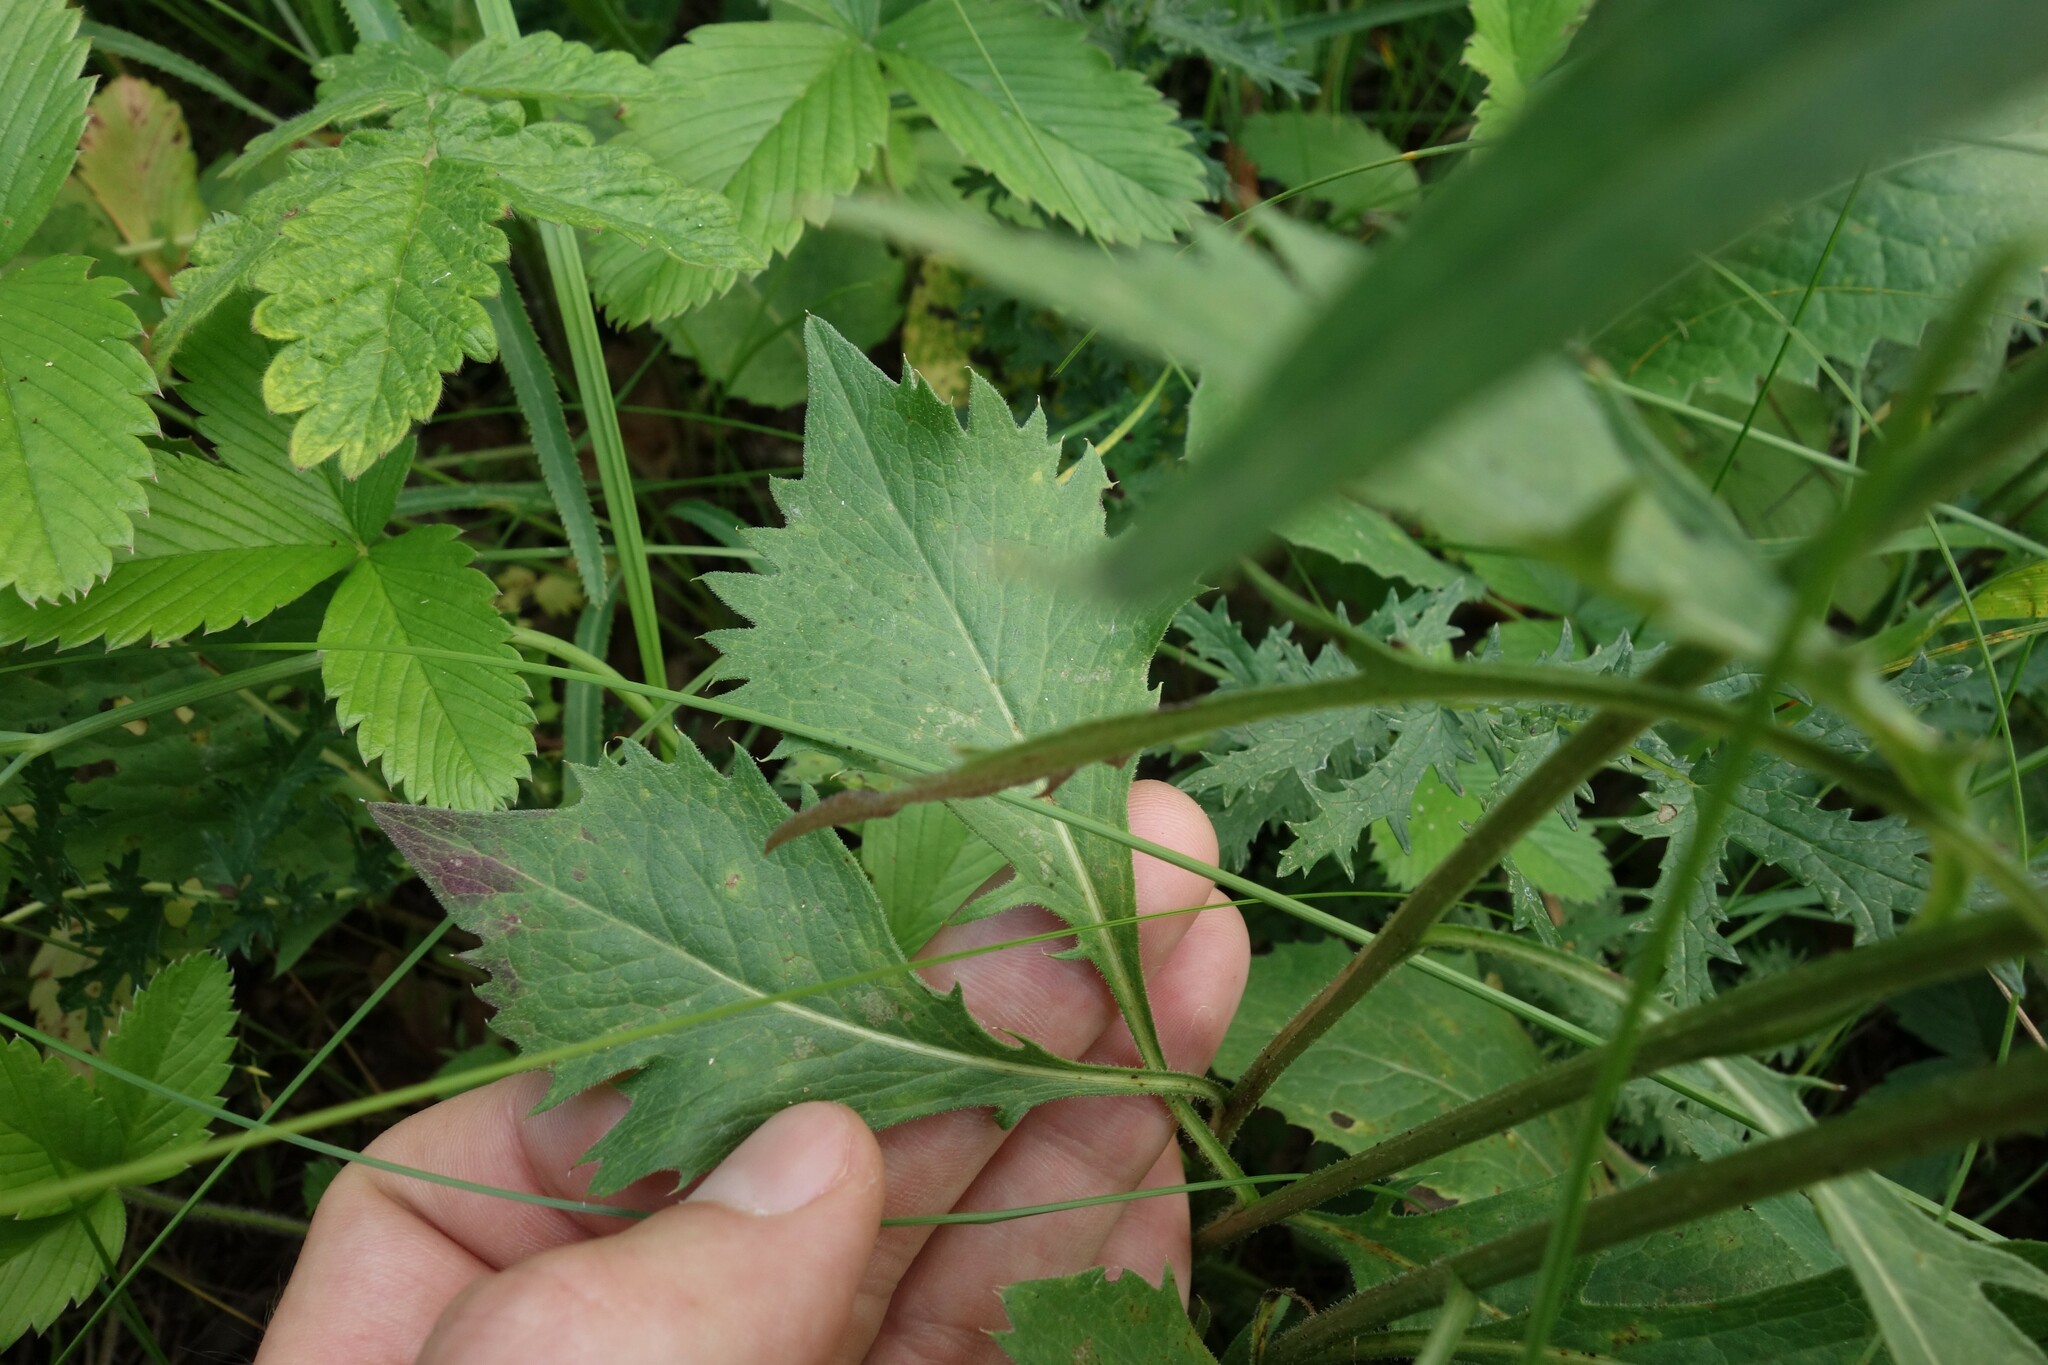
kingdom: Plantae
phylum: Tracheophyta
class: Magnoliopsida
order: Asterales
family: Asteraceae
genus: Klasea
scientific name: Klasea lycopifolia
